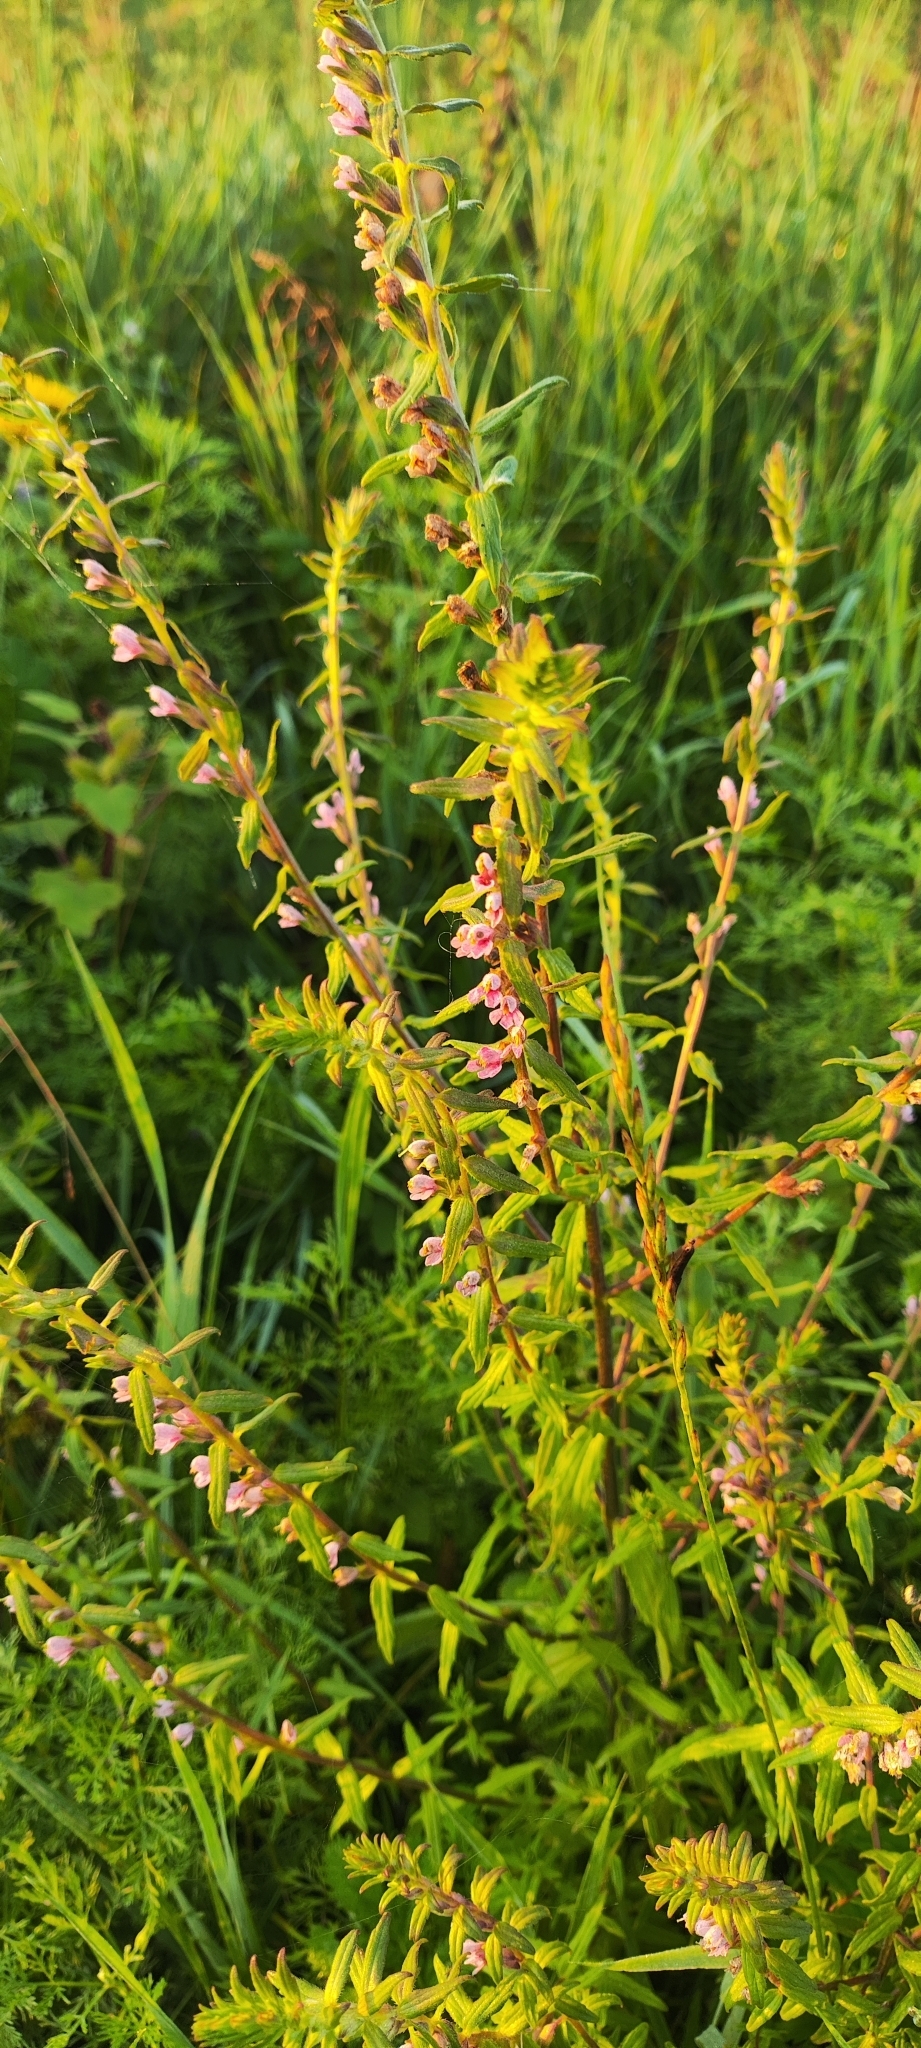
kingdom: Plantae
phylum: Tracheophyta
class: Magnoliopsida
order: Lamiales
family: Orobanchaceae
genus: Odontites
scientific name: Odontites vulgaris
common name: Broomrape
